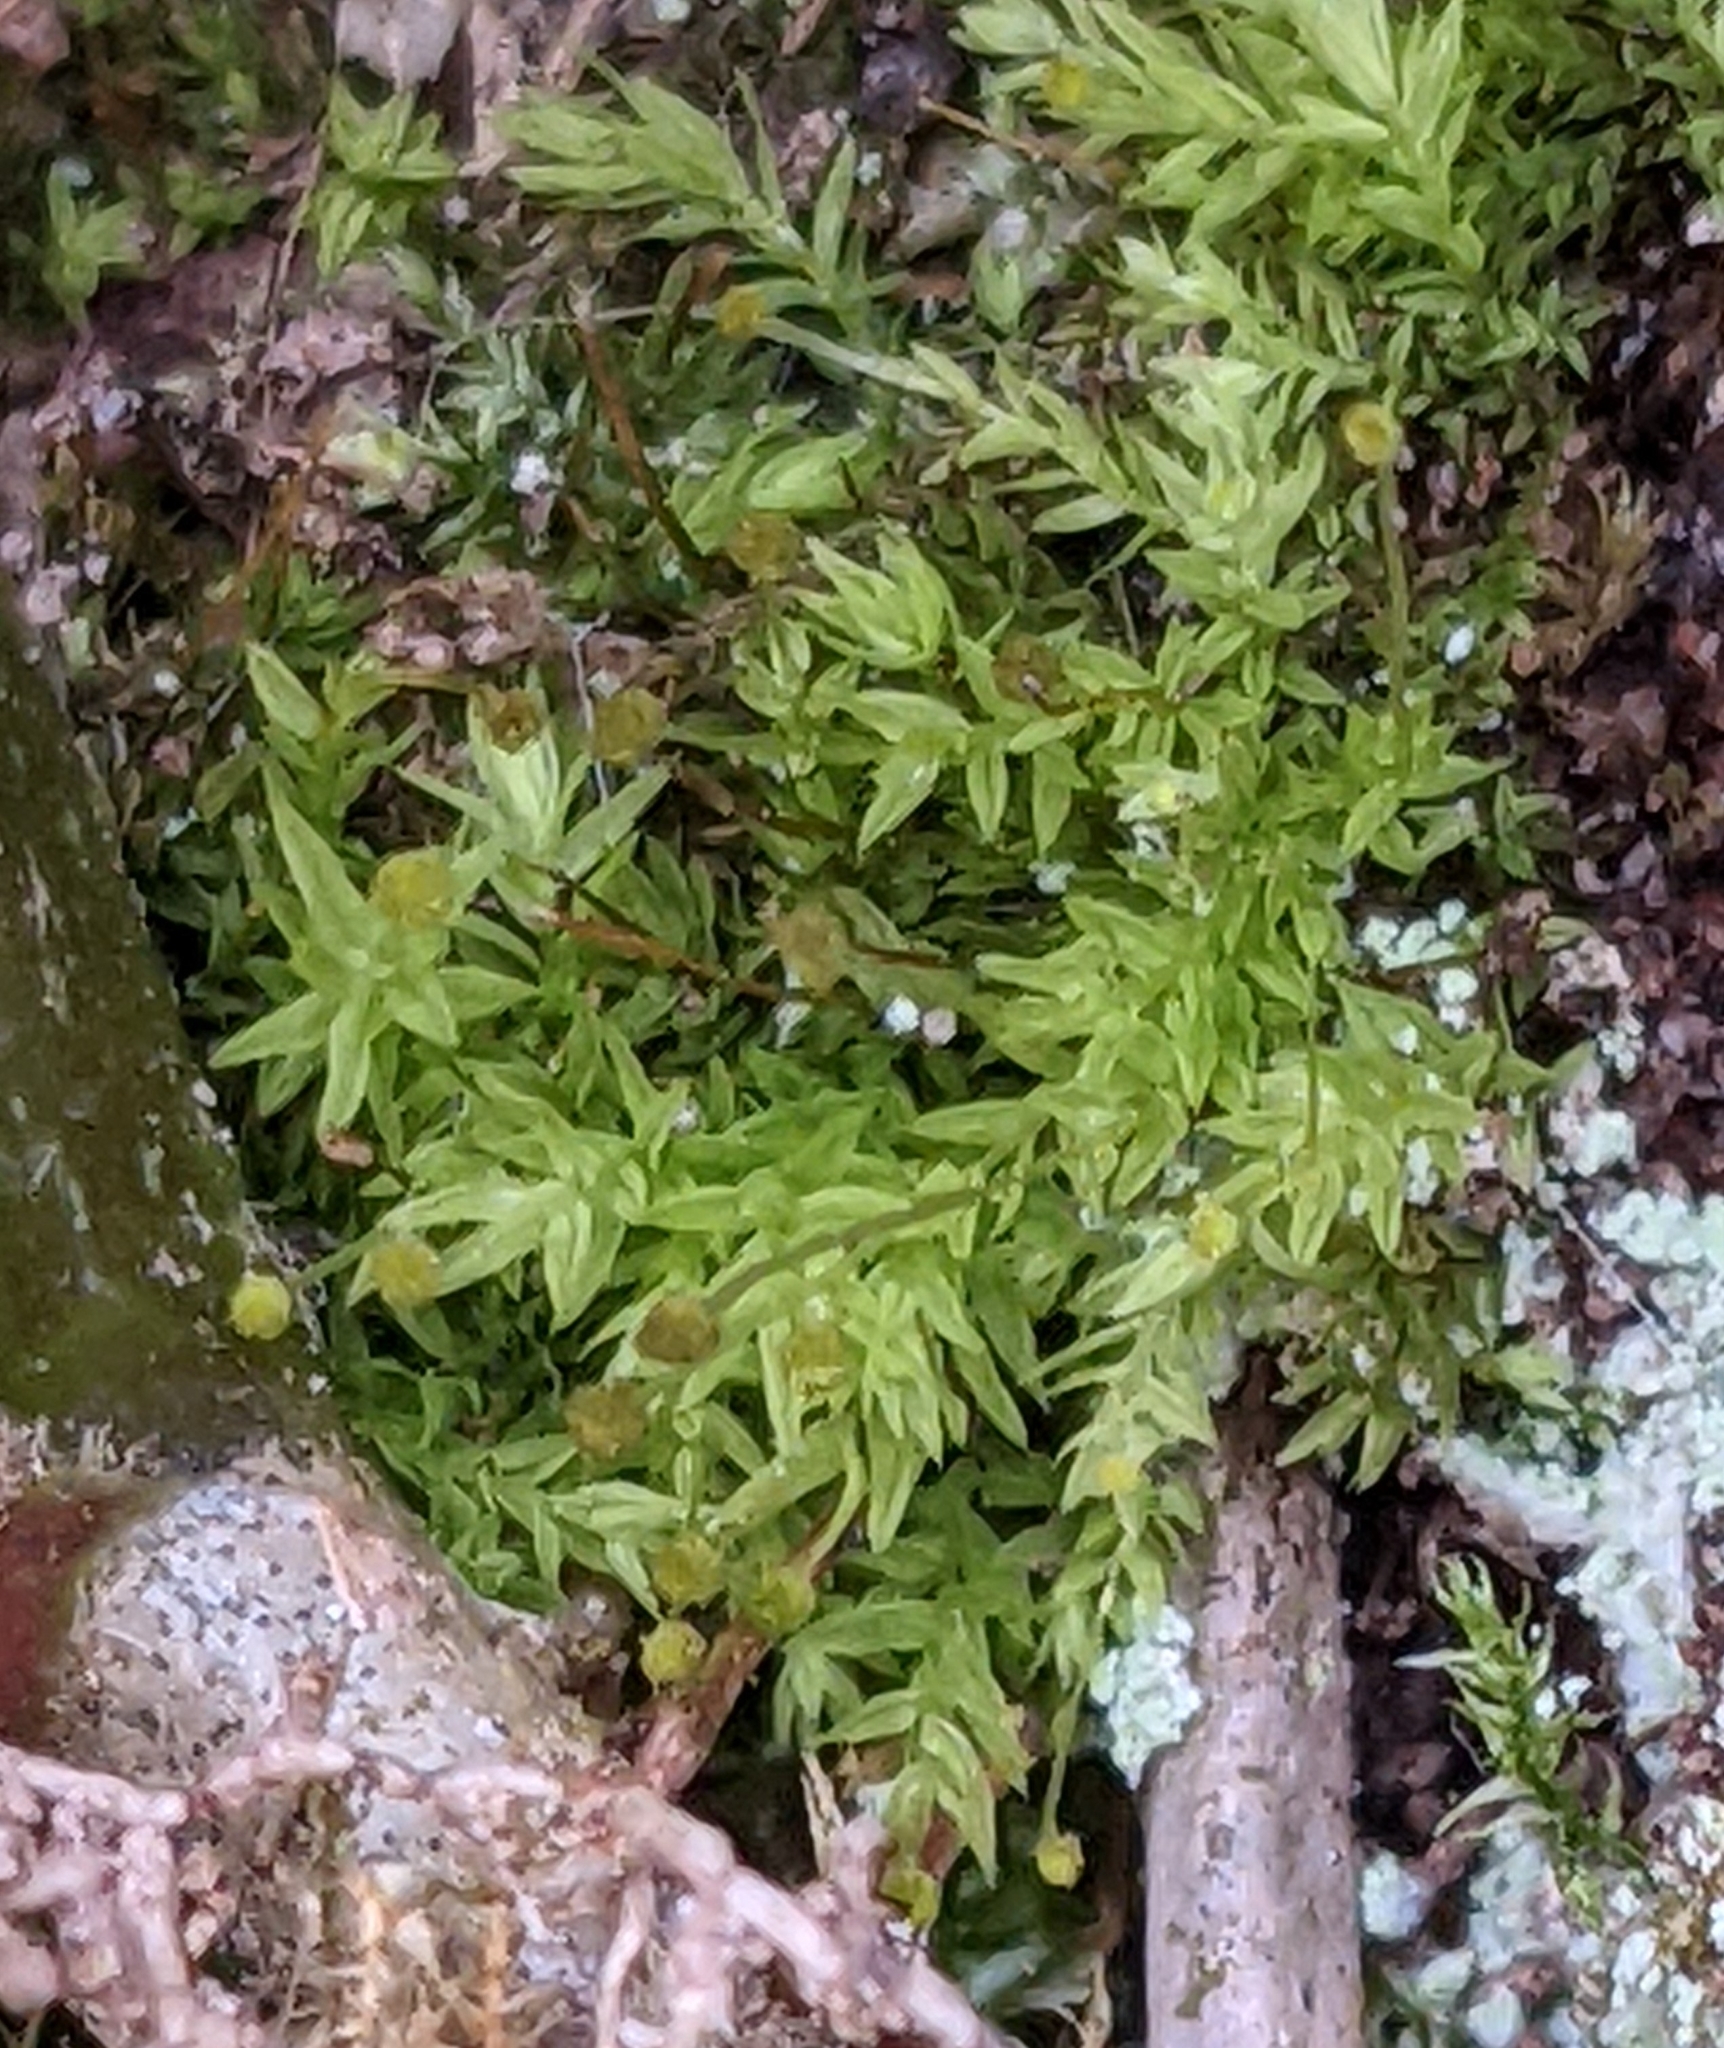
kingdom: Plantae
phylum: Bryophyta
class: Bryopsida
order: Aulacomniales
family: Aulacomniaceae
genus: Aulacomnium
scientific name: Aulacomnium androgynum
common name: Little groove moss
